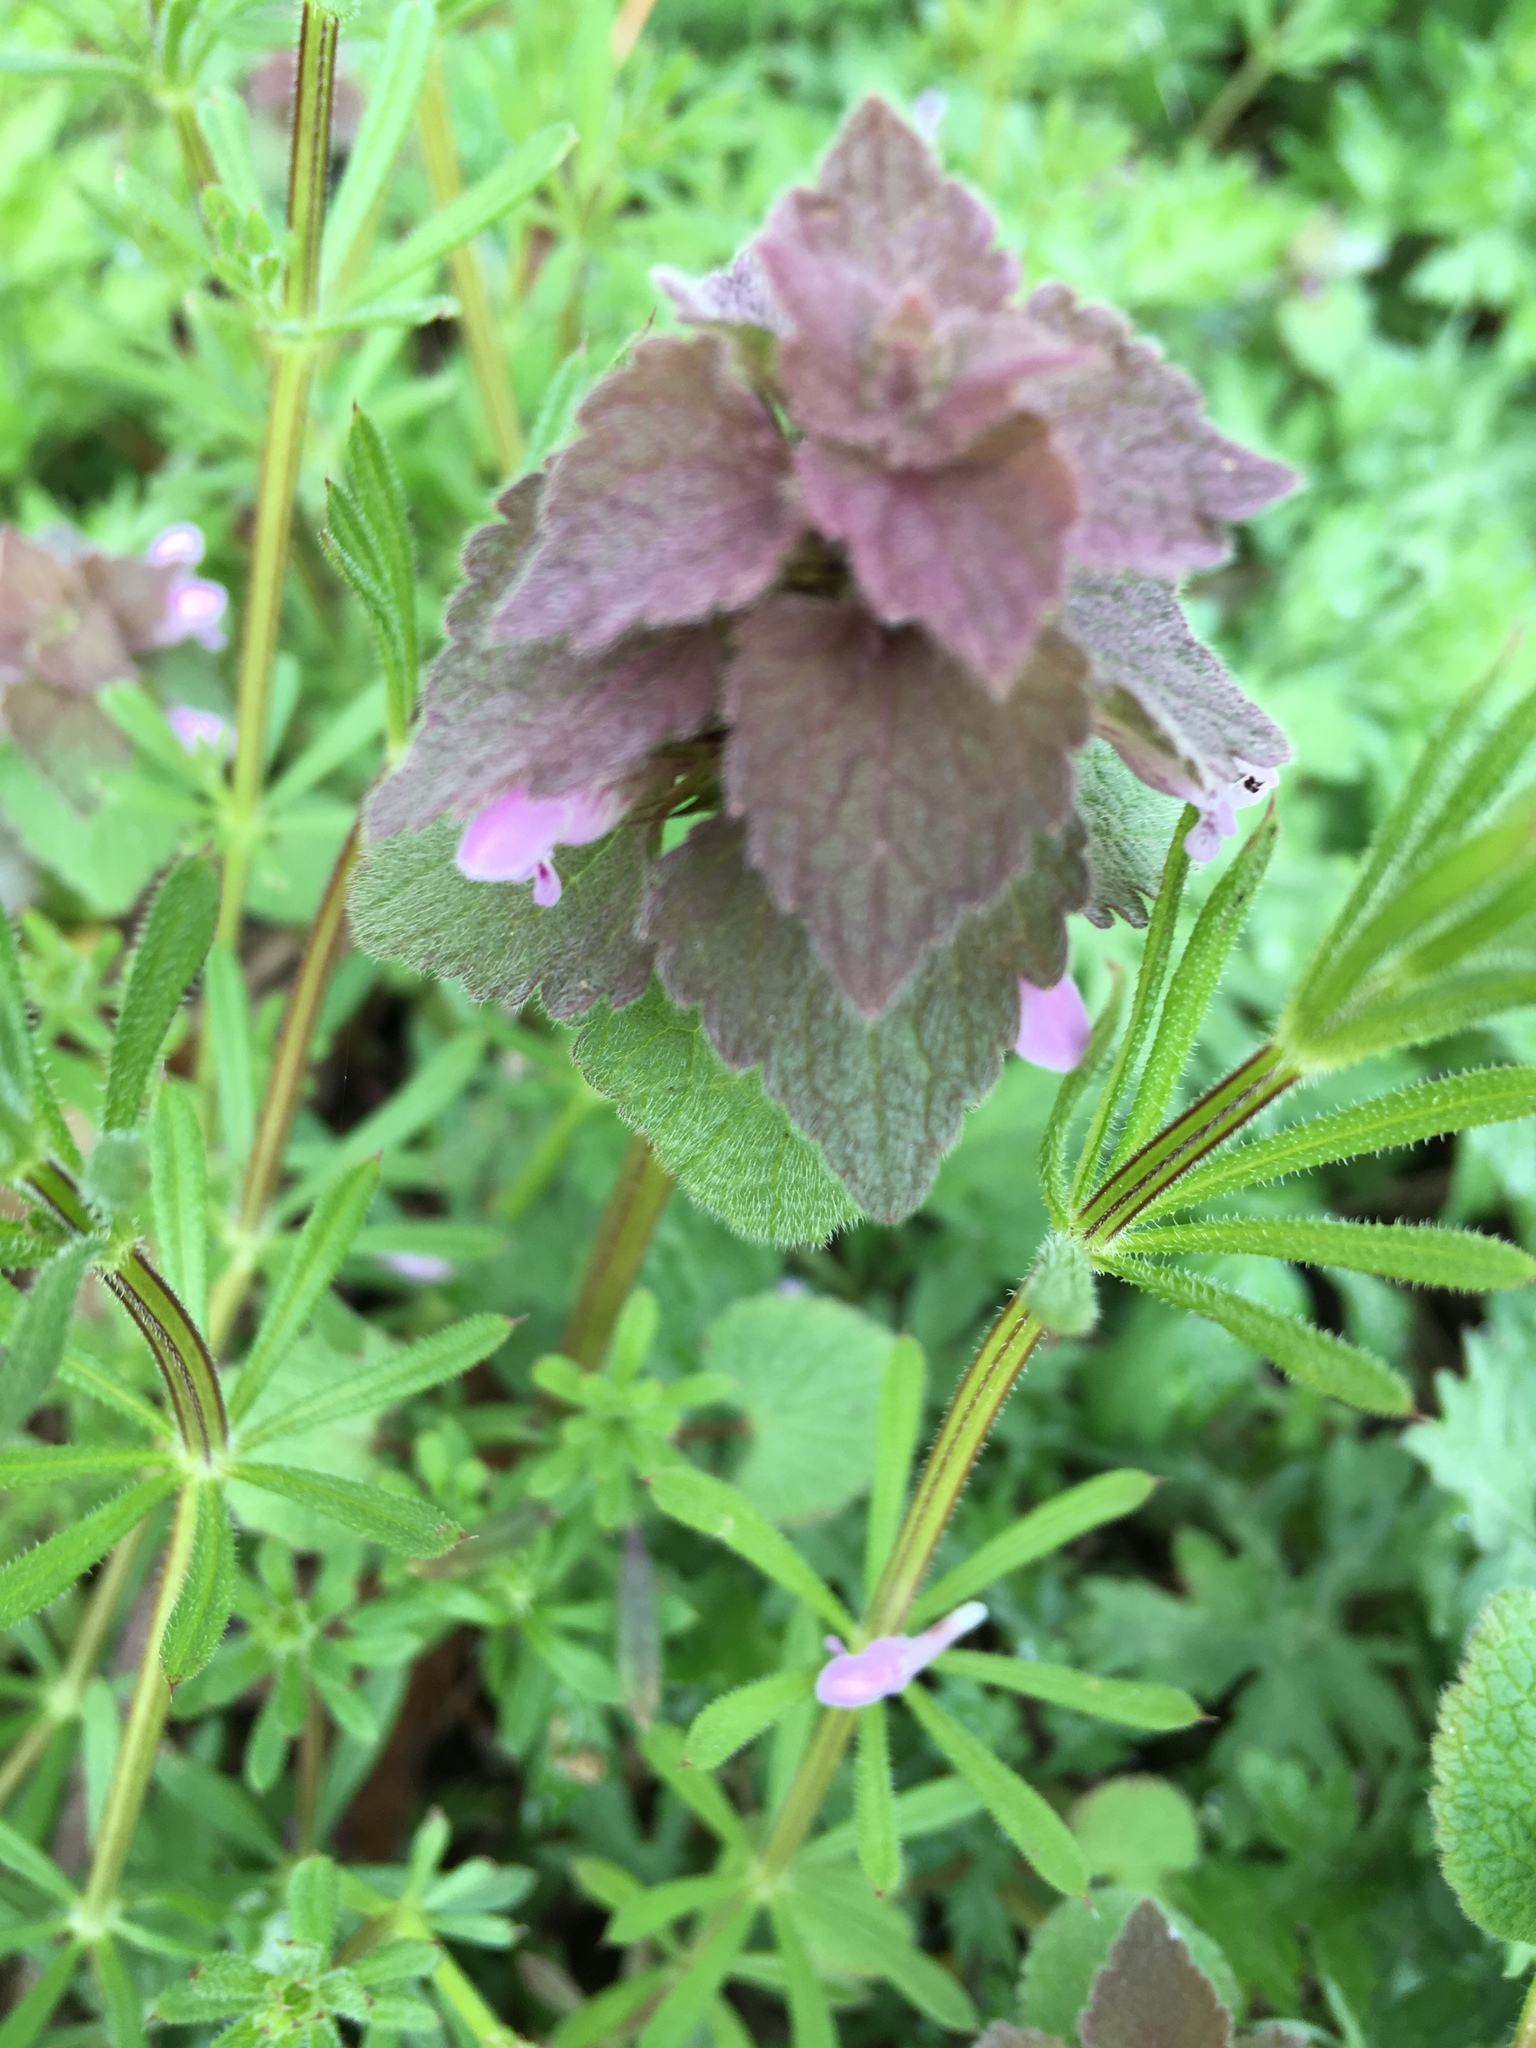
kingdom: Plantae
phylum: Tracheophyta
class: Magnoliopsida
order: Lamiales
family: Lamiaceae
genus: Lamium
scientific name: Lamium purpureum
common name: Red dead-nettle
